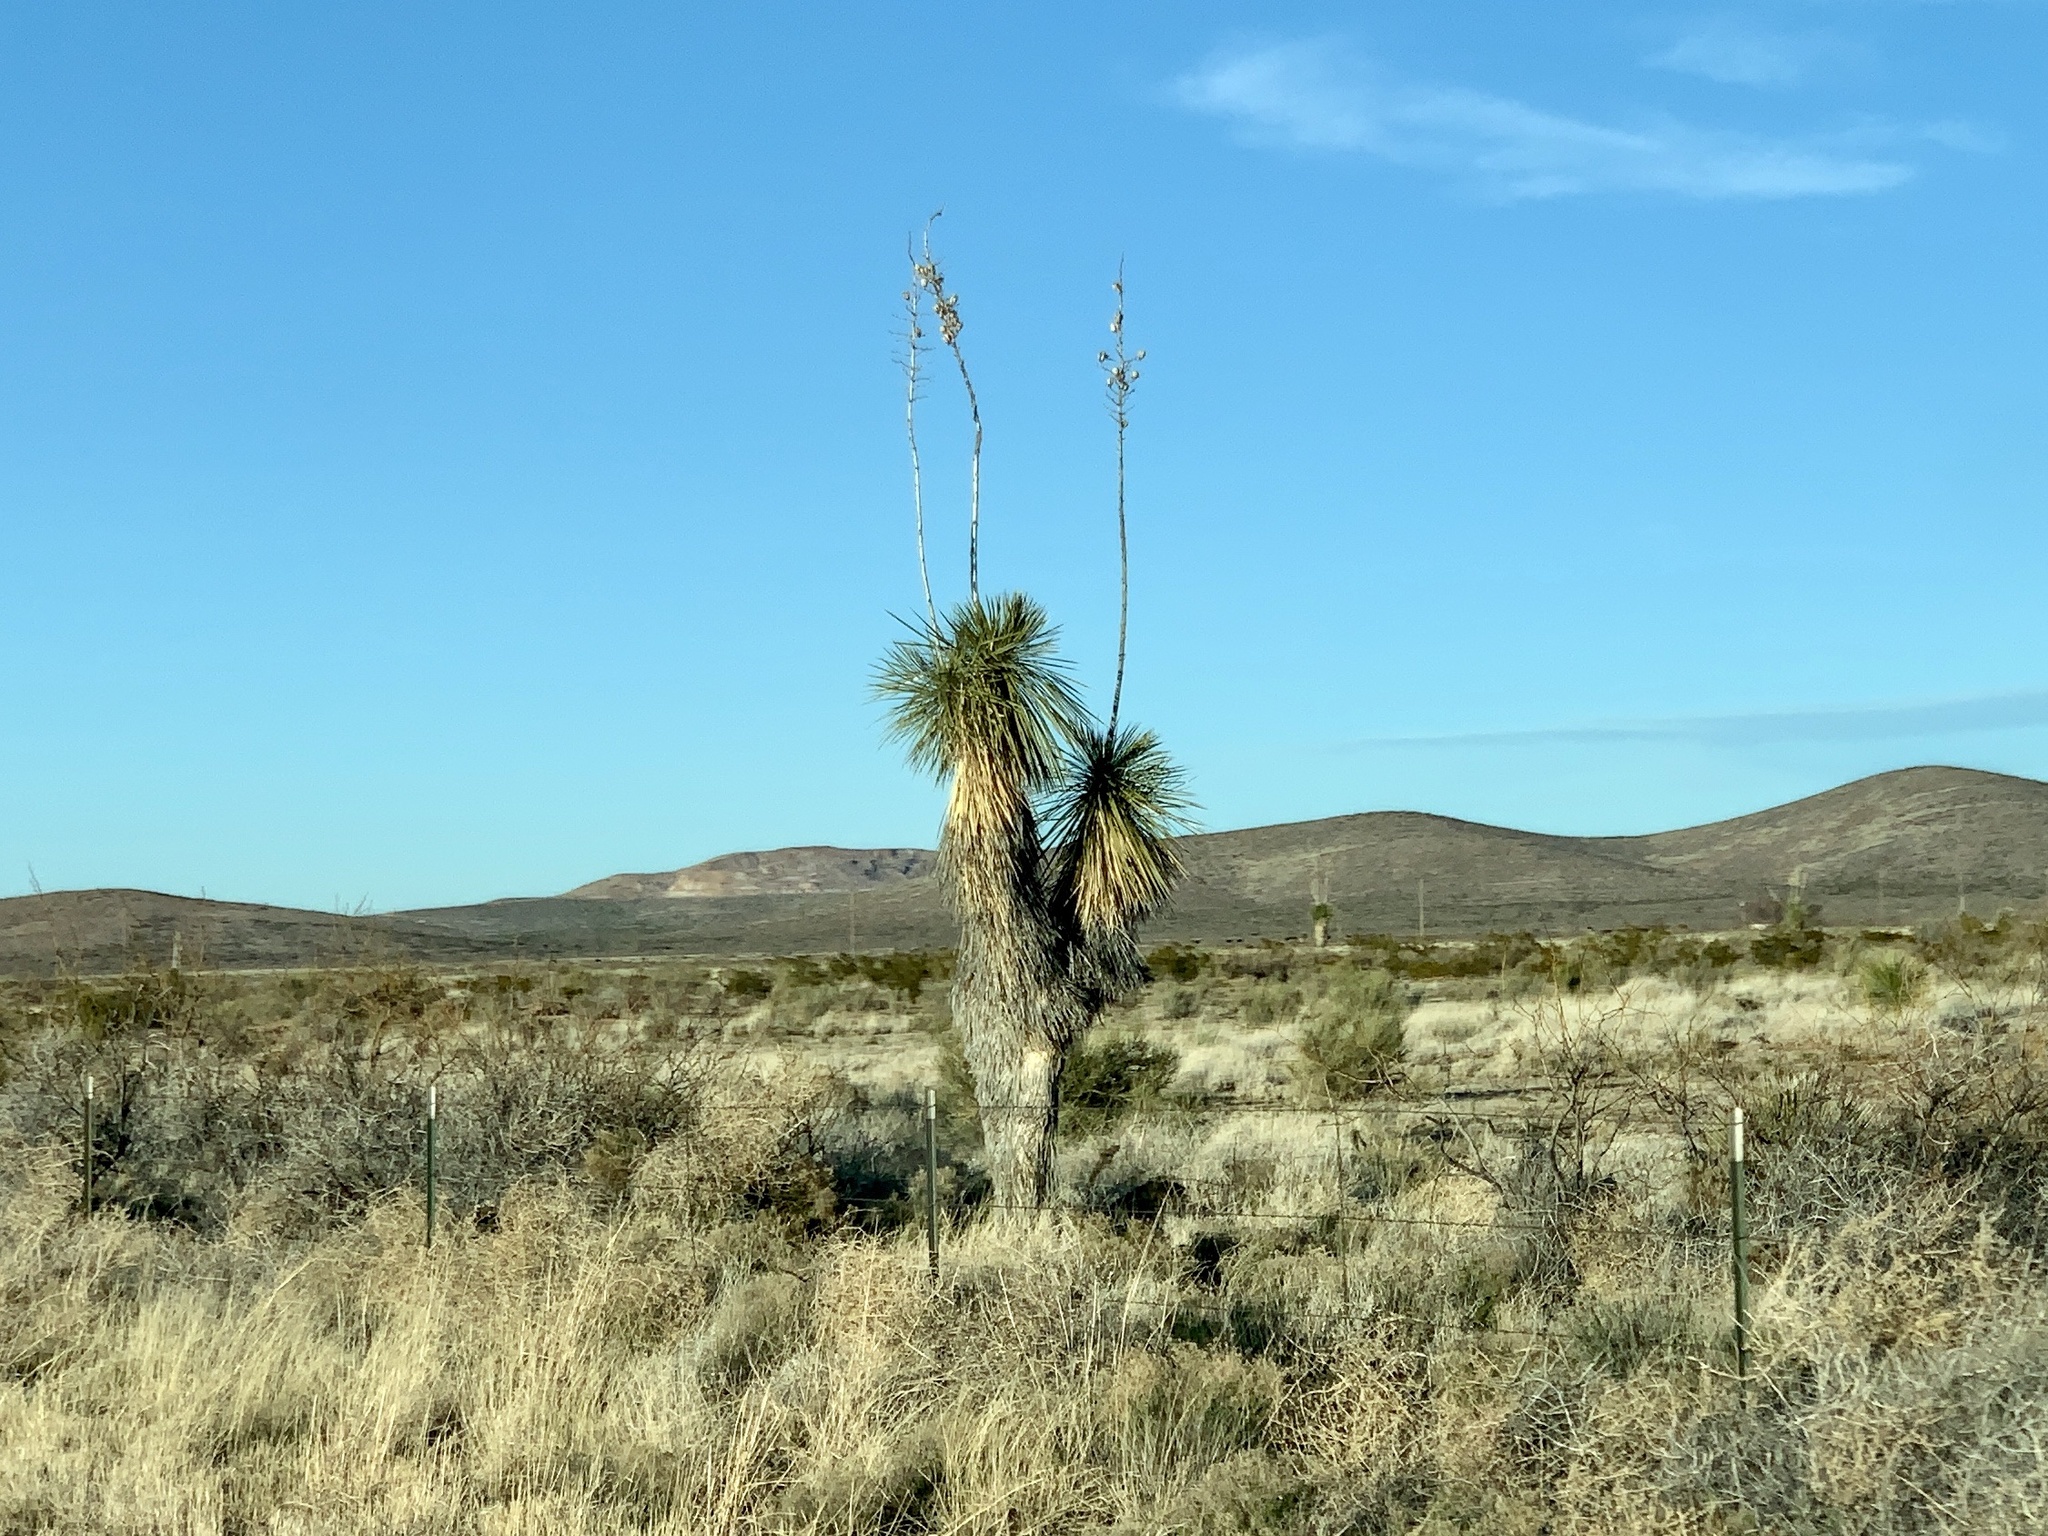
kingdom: Plantae
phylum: Tracheophyta
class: Liliopsida
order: Asparagales
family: Asparagaceae
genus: Yucca
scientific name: Yucca elata
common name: Palmella
